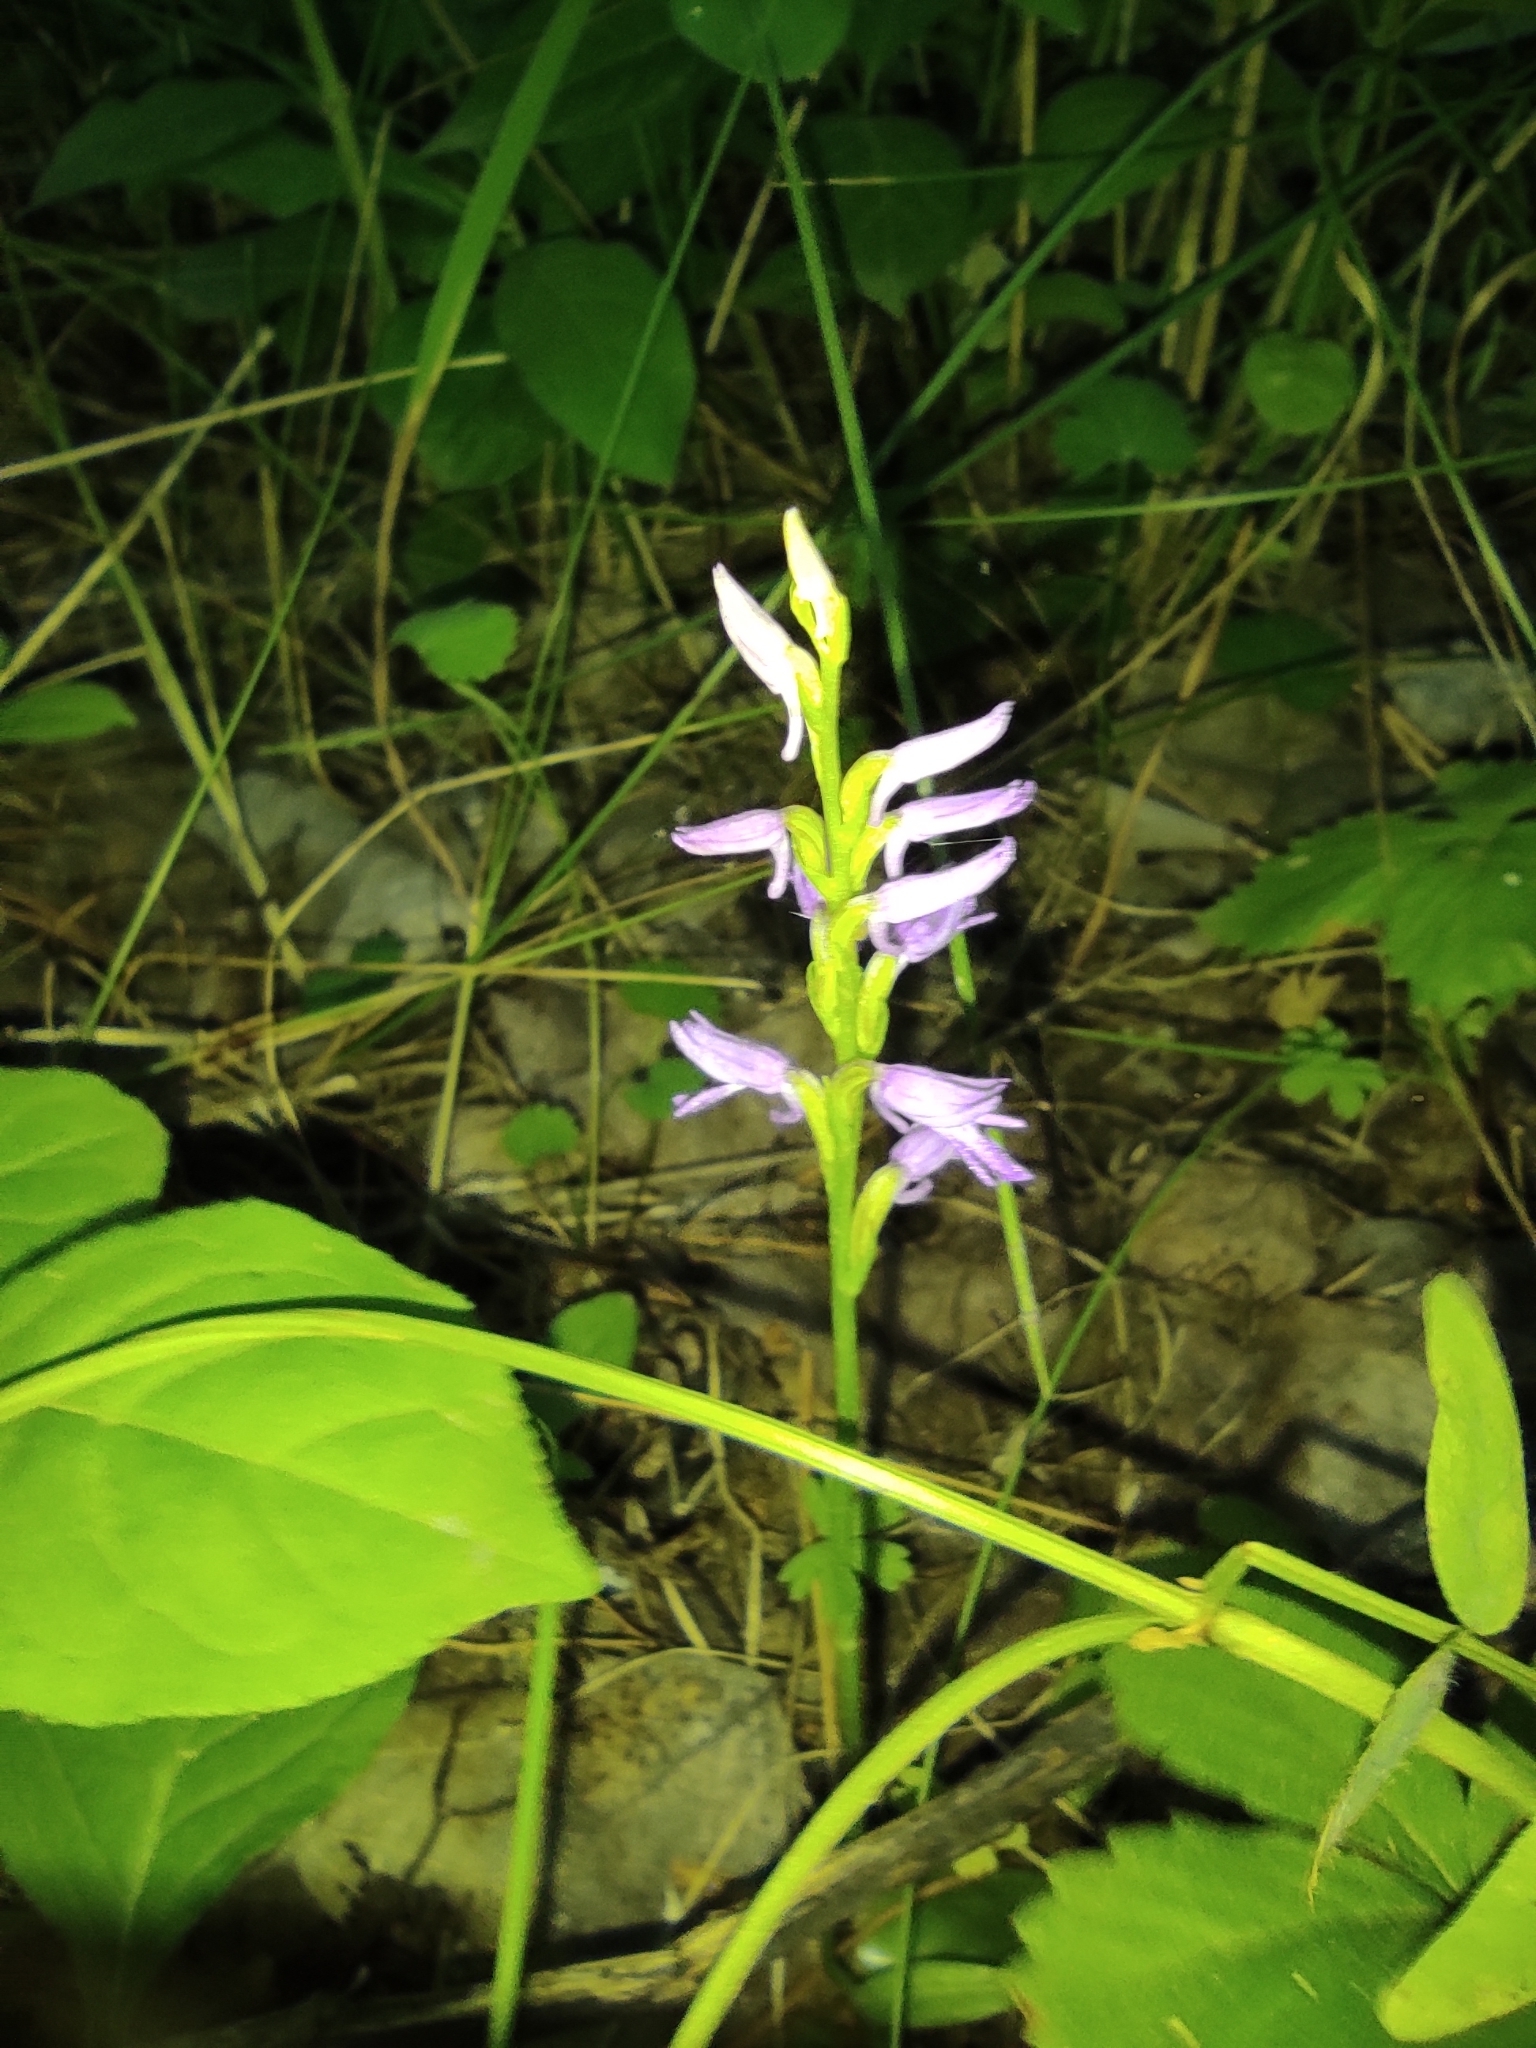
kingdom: Plantae
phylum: Tracheophyta
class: Liliopsida
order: Asparagales
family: Orchidaceae
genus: Hemipilia
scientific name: Hemipilia cucullata
